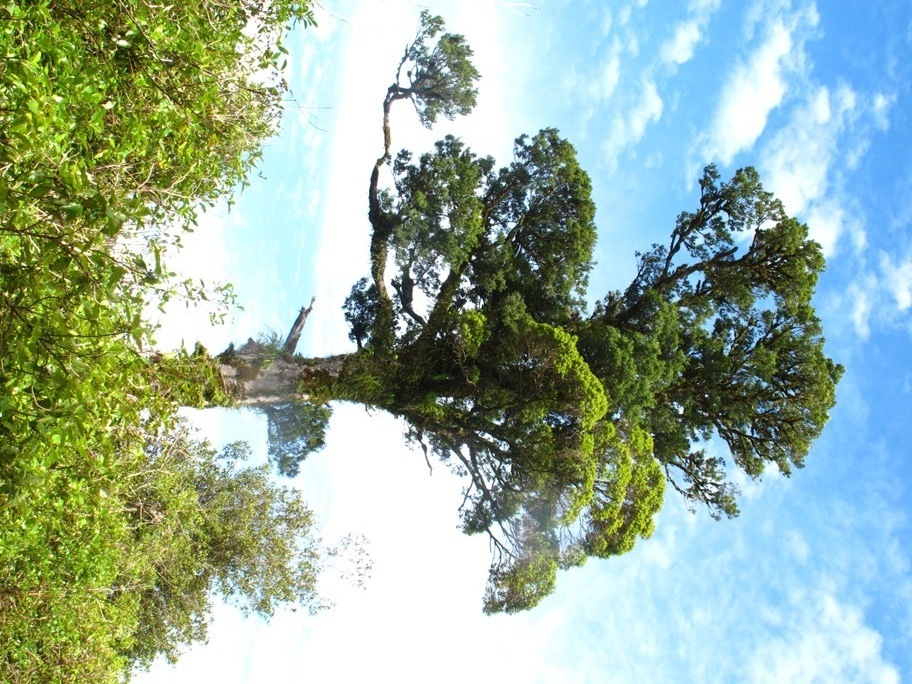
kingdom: Plantae
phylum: Tracheophyta
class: Magnoliopsida
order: Myrtales
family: Myrtaceae
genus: Metrosideros
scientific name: Metrosideros robusta
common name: Northern rata
